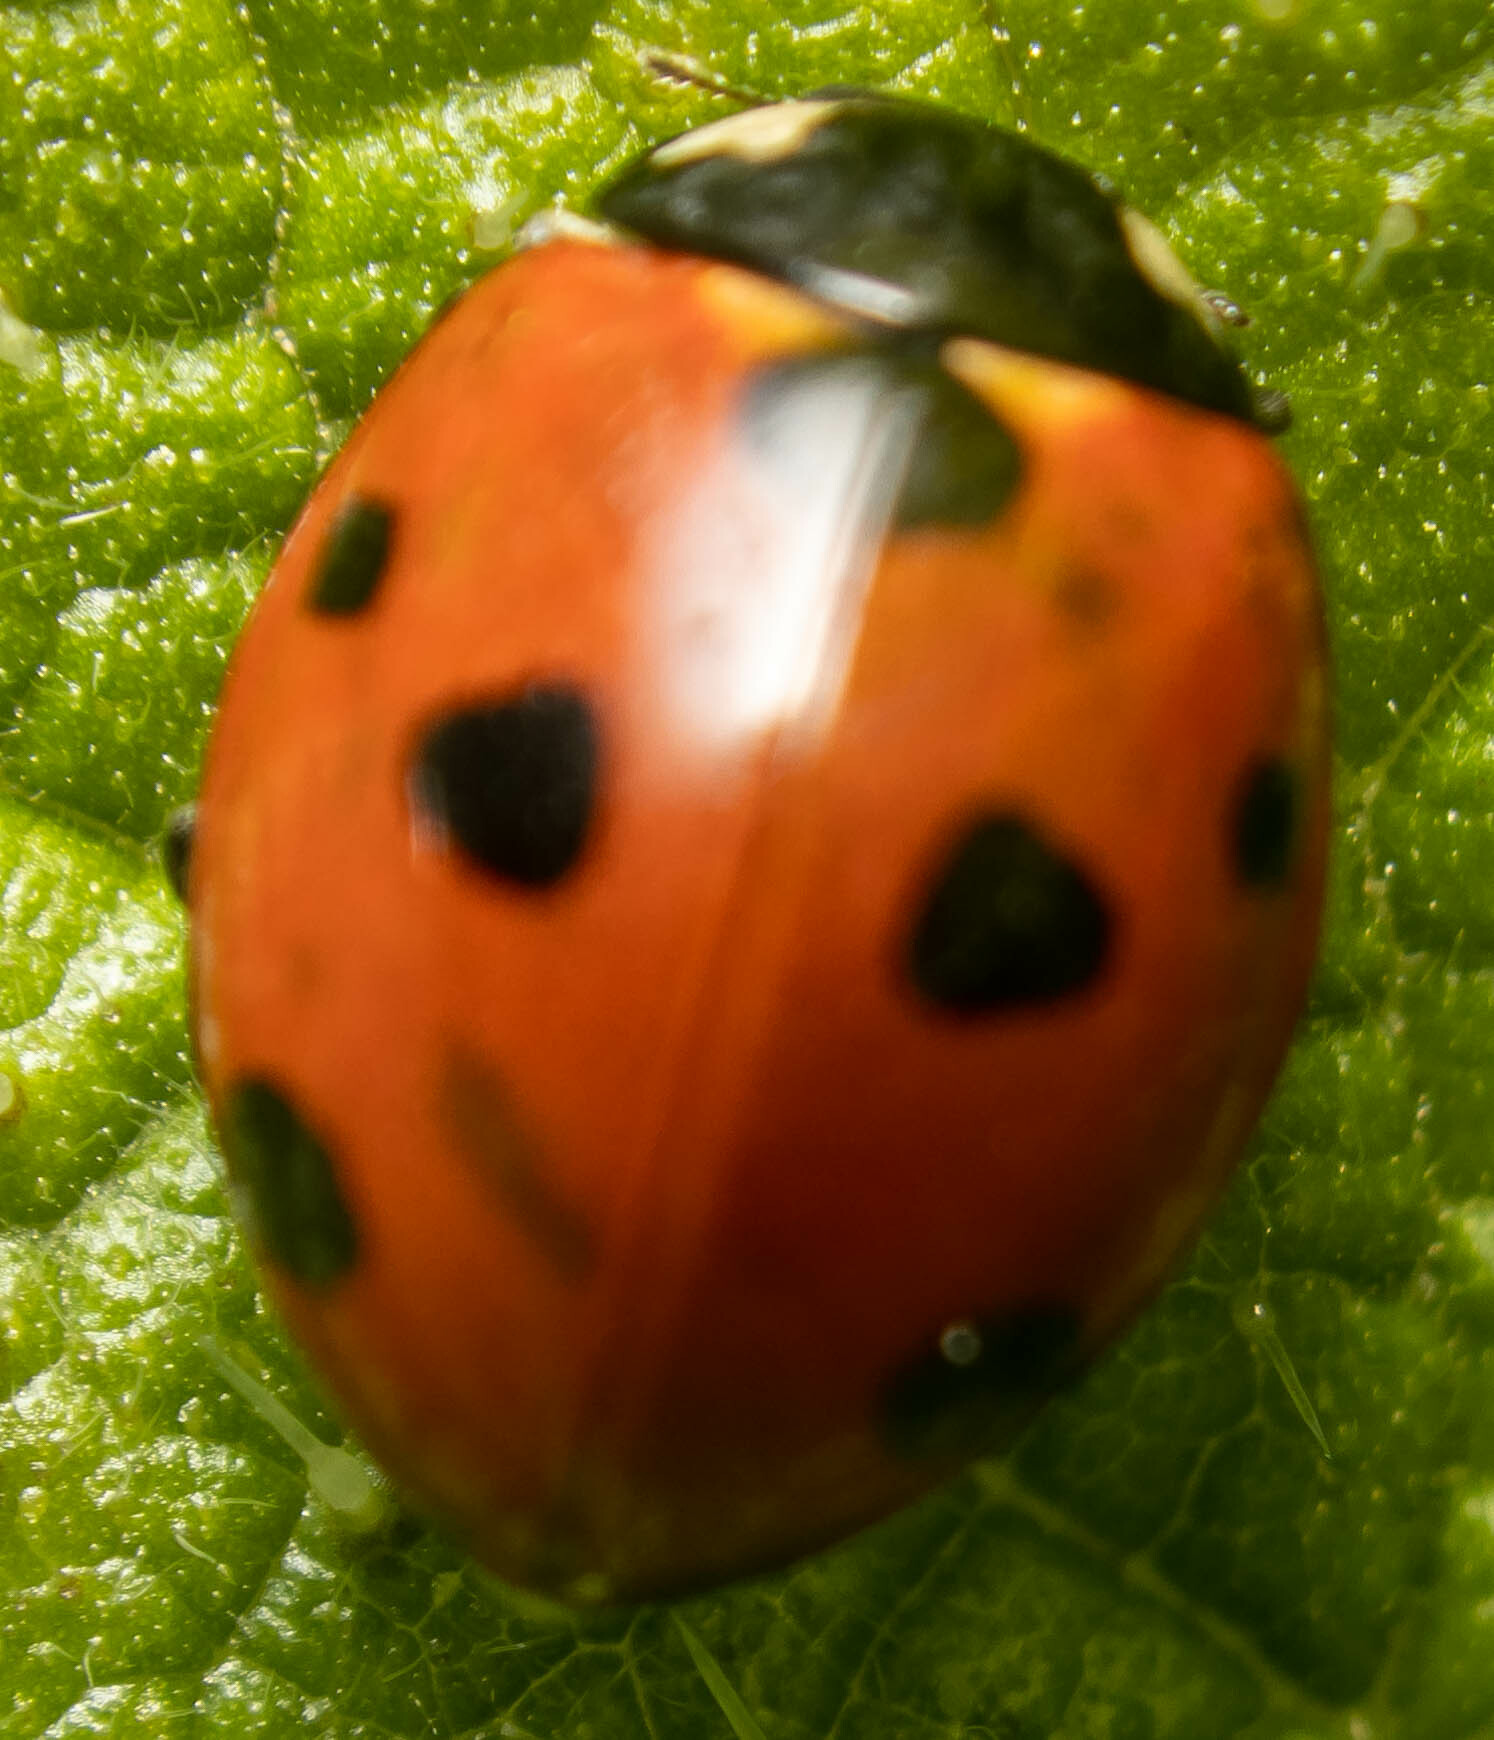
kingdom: Animalia
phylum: Arthropoda
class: Insecta
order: Coleoptera
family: Coccinellidae
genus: Coccinella
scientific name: Coccinella septempunctata
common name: Sevenspotted lady beetle
